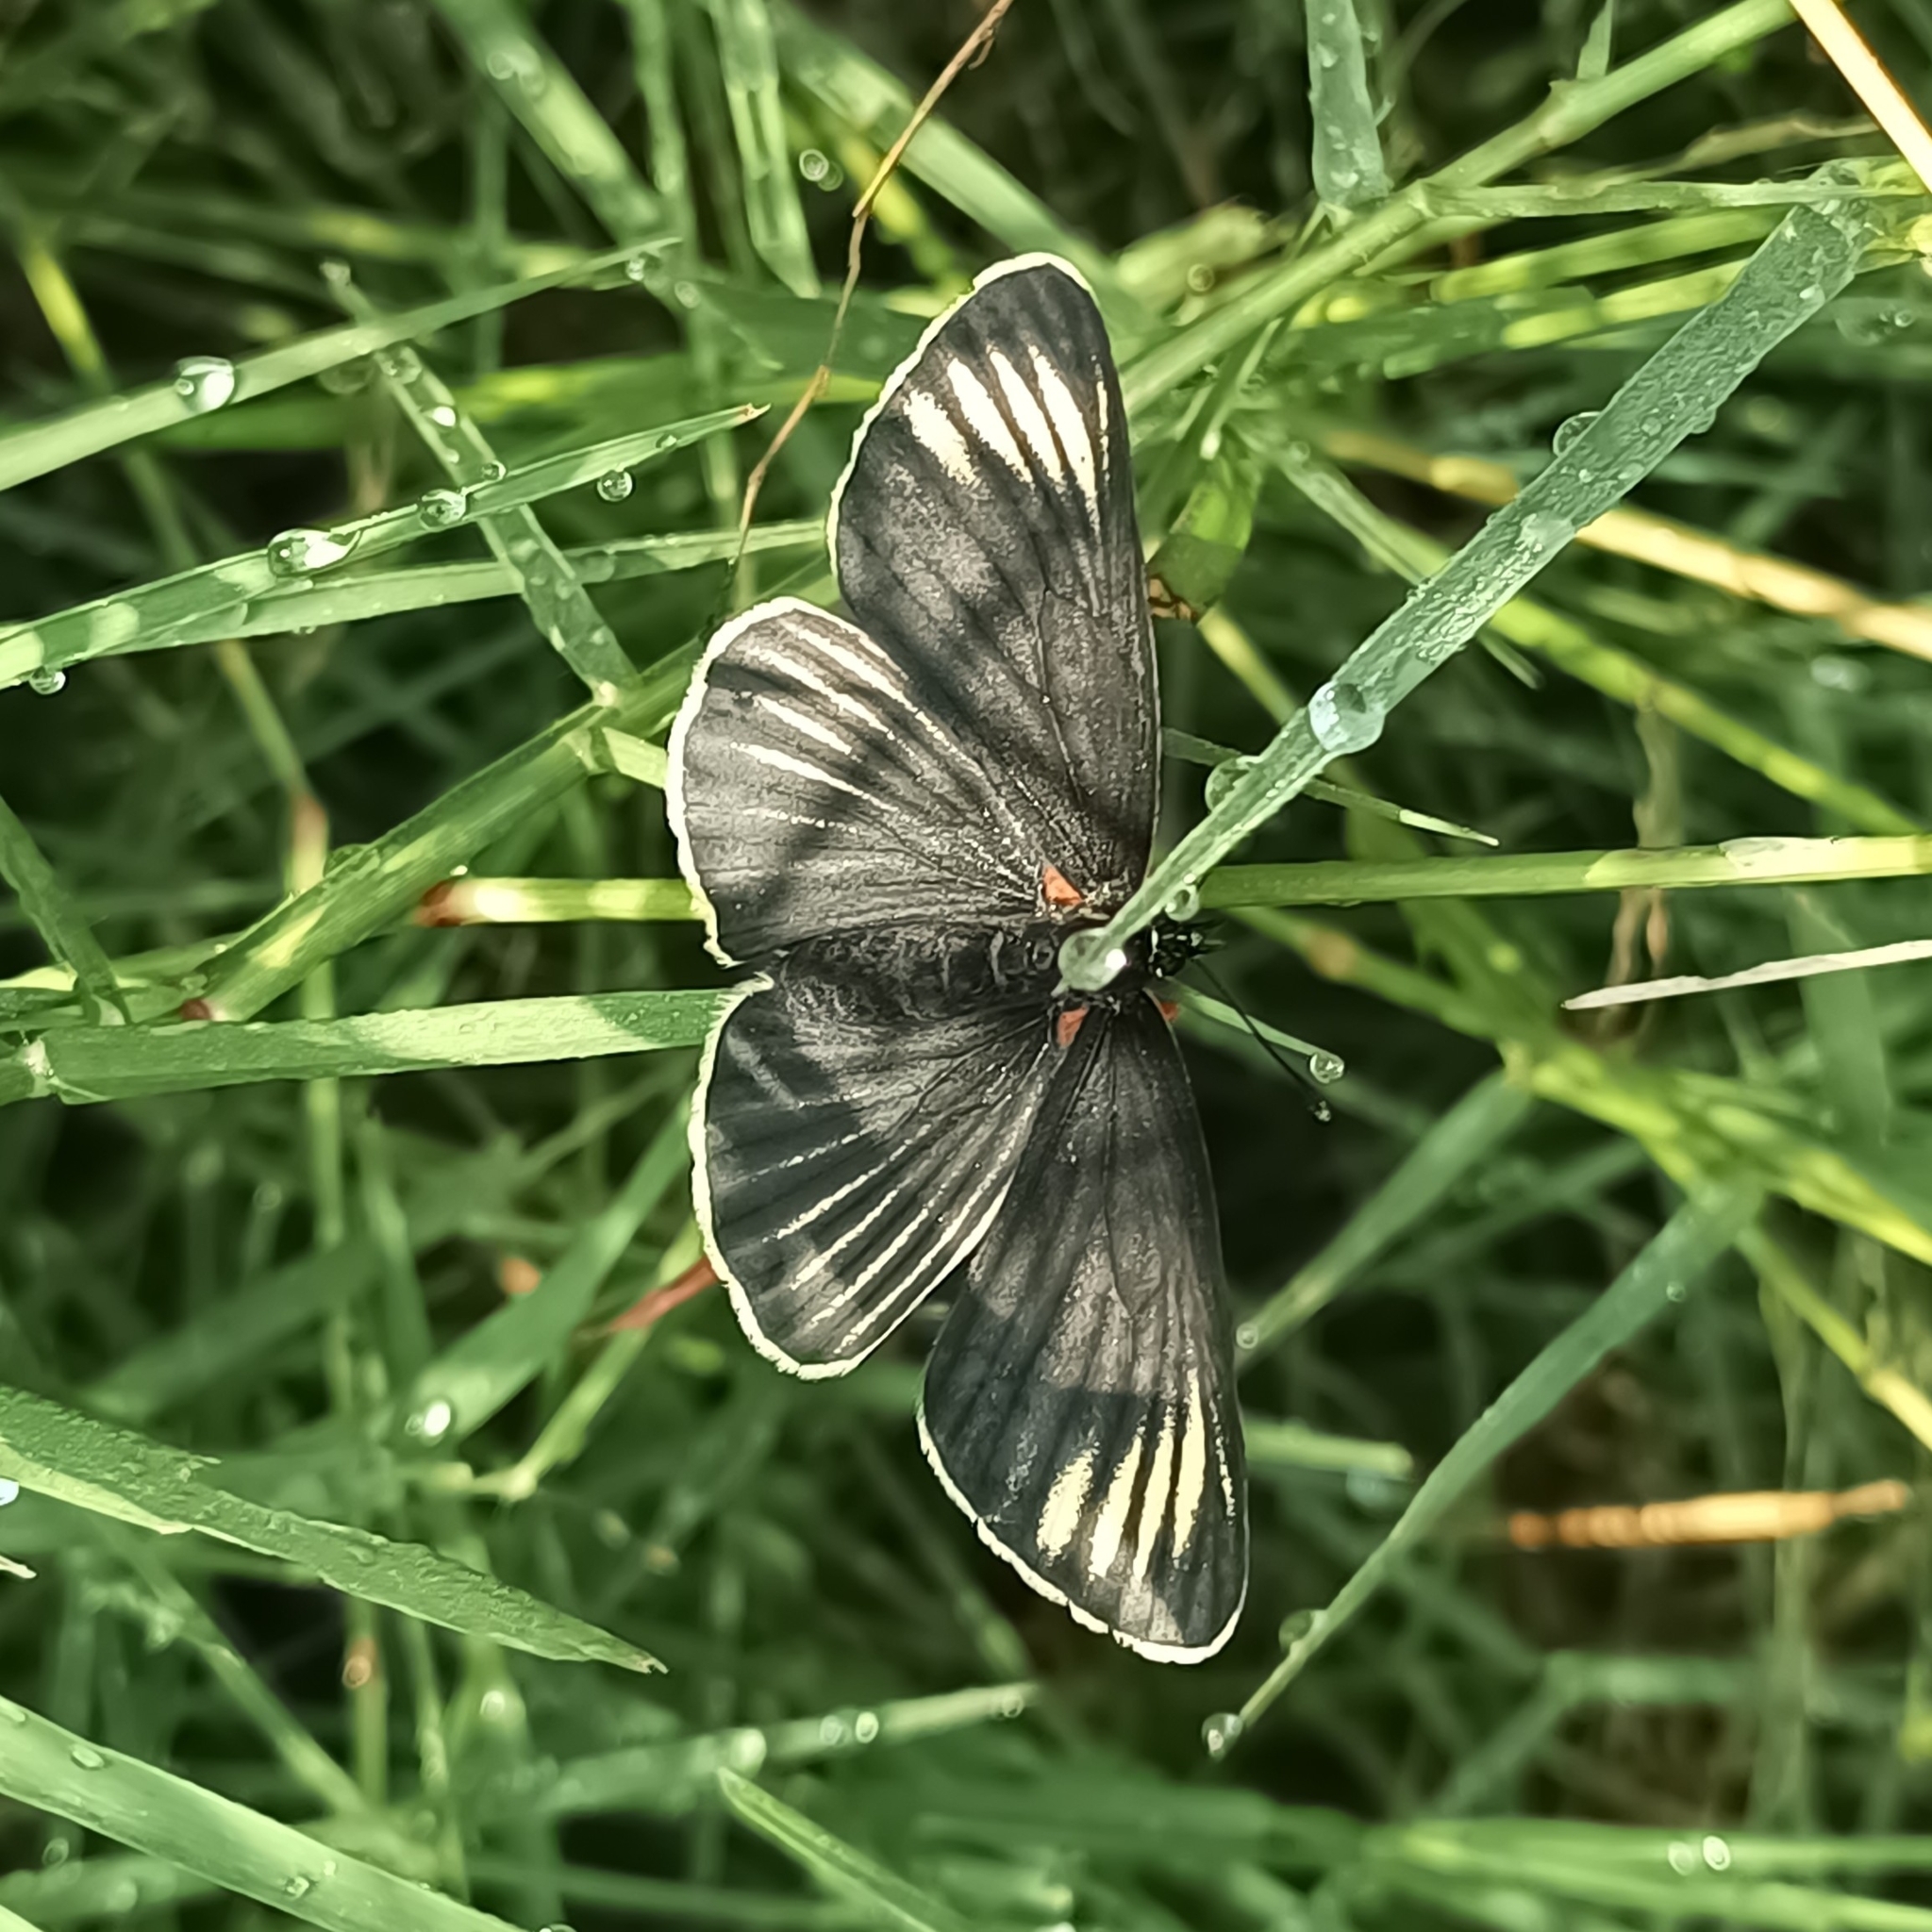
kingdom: Animalia
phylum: Arthropoda
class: Insecta
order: Lepidoptera
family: Nymphalidae
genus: Chlosyne
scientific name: Chlosyne ehrenbergii
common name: White-rayed patch
